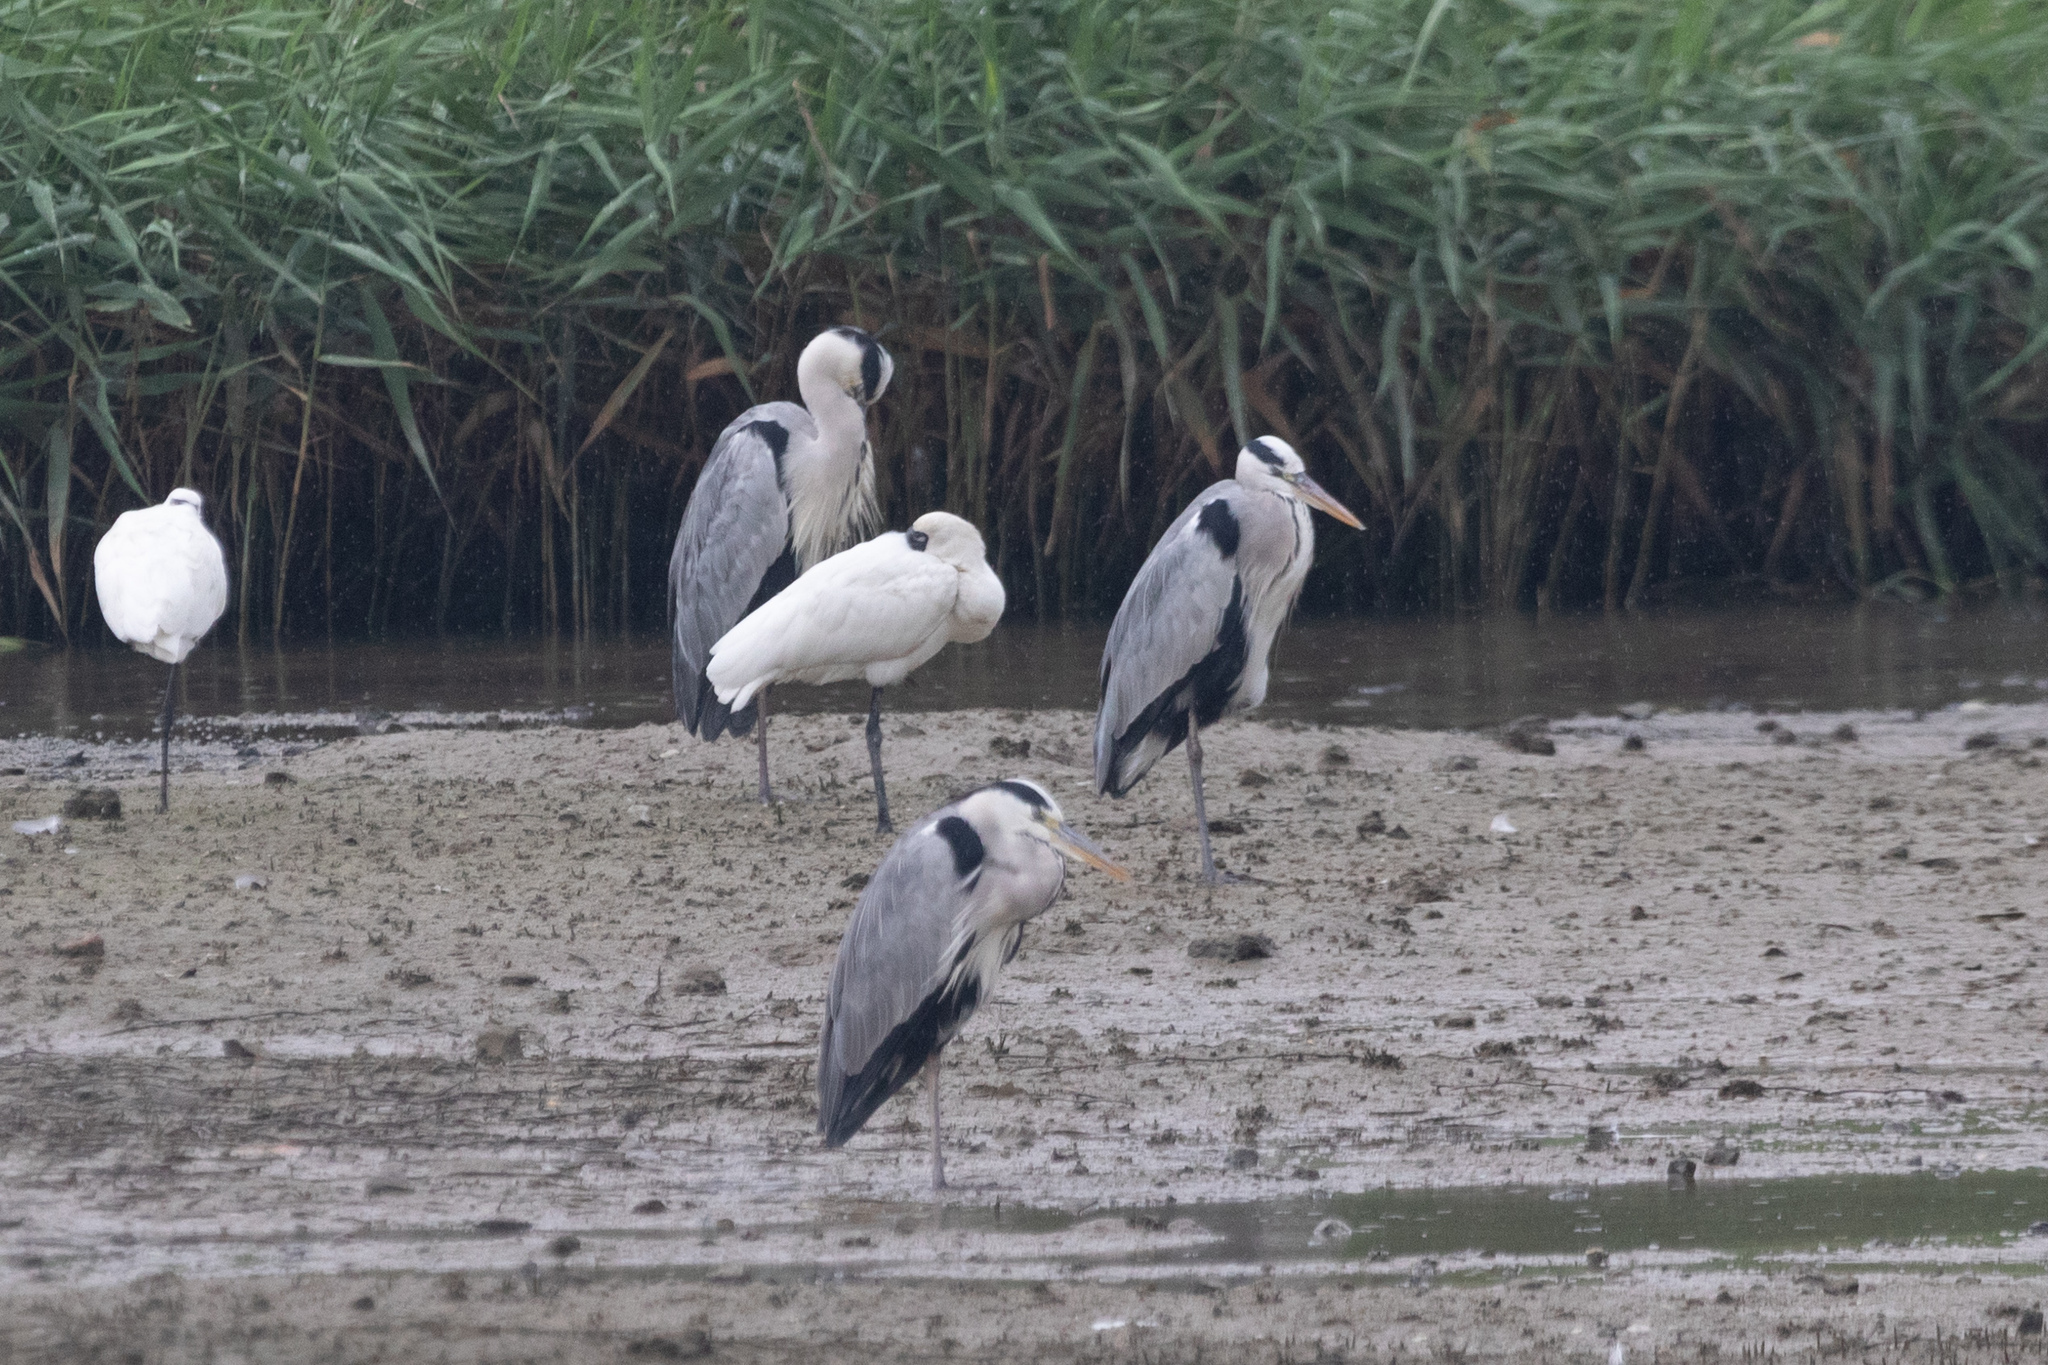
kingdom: Animalia
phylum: Chordata
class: Aves
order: Pelecaniformes
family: Ardeidae
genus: Ardea
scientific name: Ardea cinerea
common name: Grey heron
